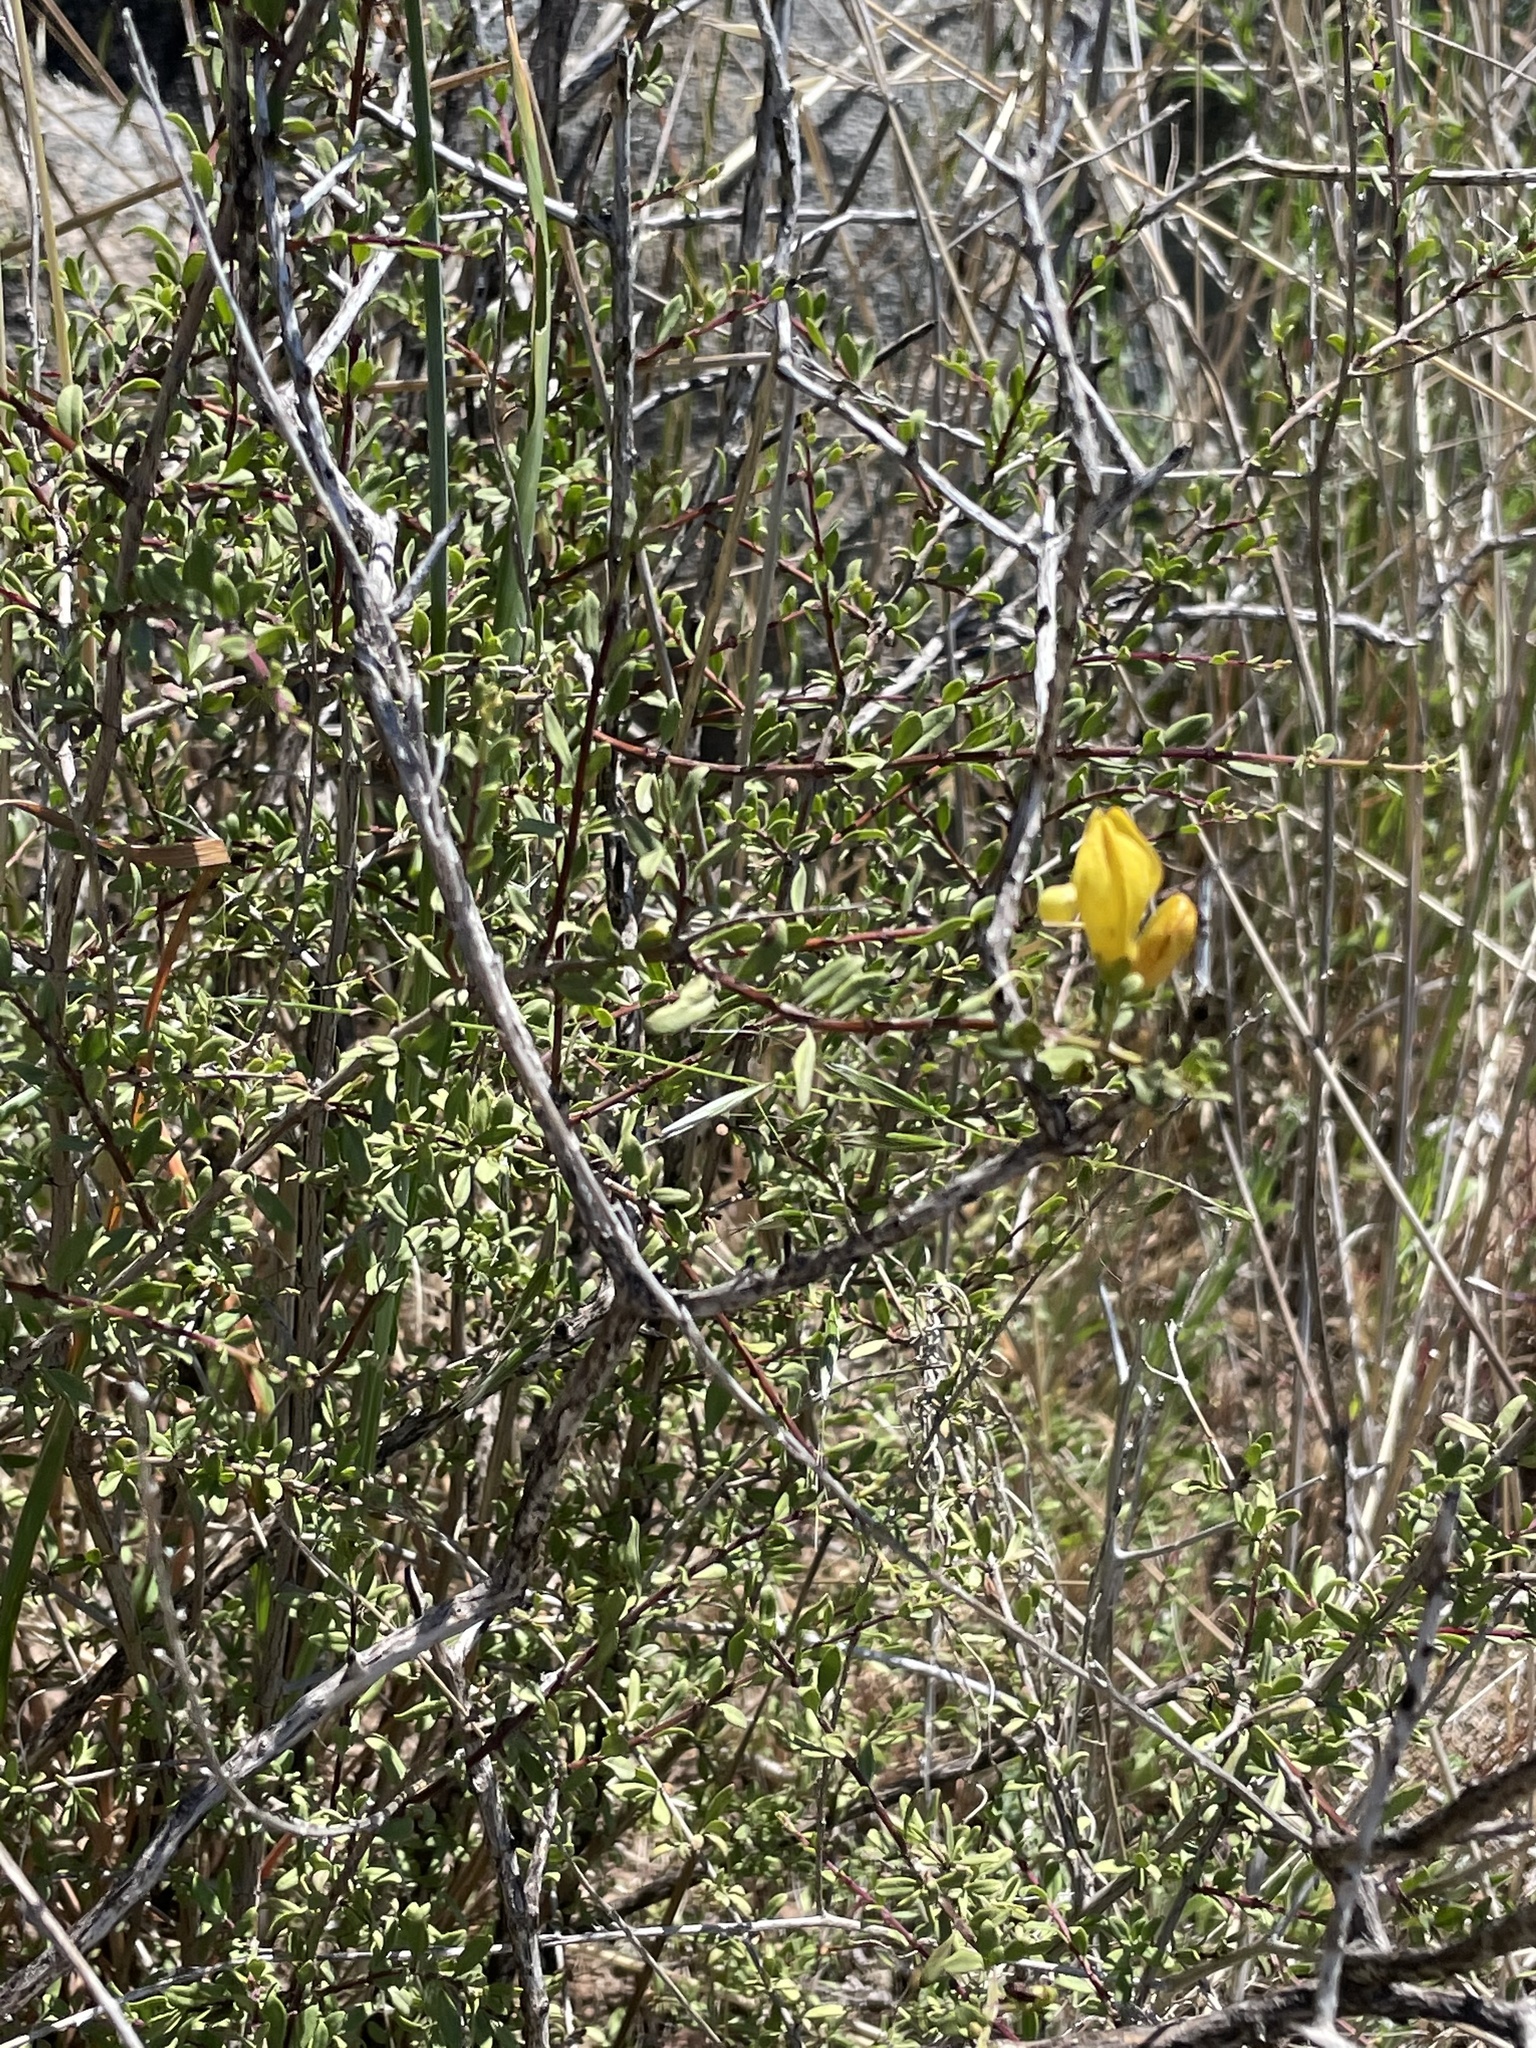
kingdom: Plantae
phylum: Tracheophyta
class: Magnoliopsida
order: Lamiales
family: Plantaginaceae
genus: Keckiella
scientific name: Keckiella antirrhinoides
